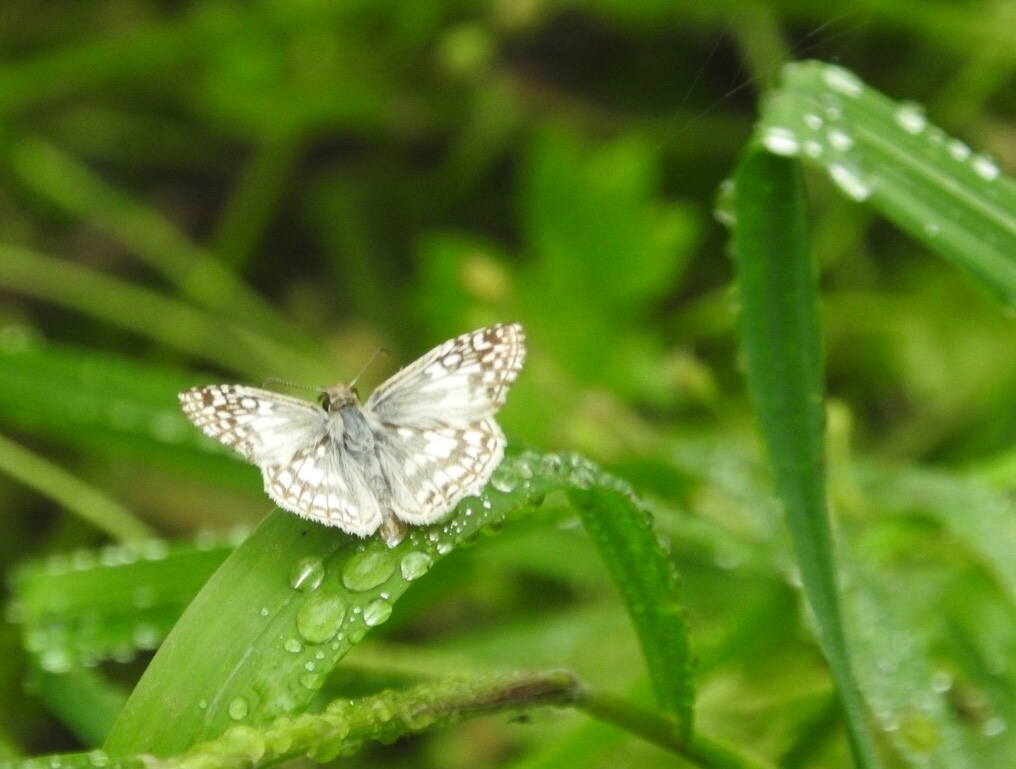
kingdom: Animalia
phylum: Arthropoda
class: Insecta
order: Lepidoptera
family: Hesperiidae
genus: Pyrgus
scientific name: Pyrgus oileus
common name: Tropical checkered-skipper
